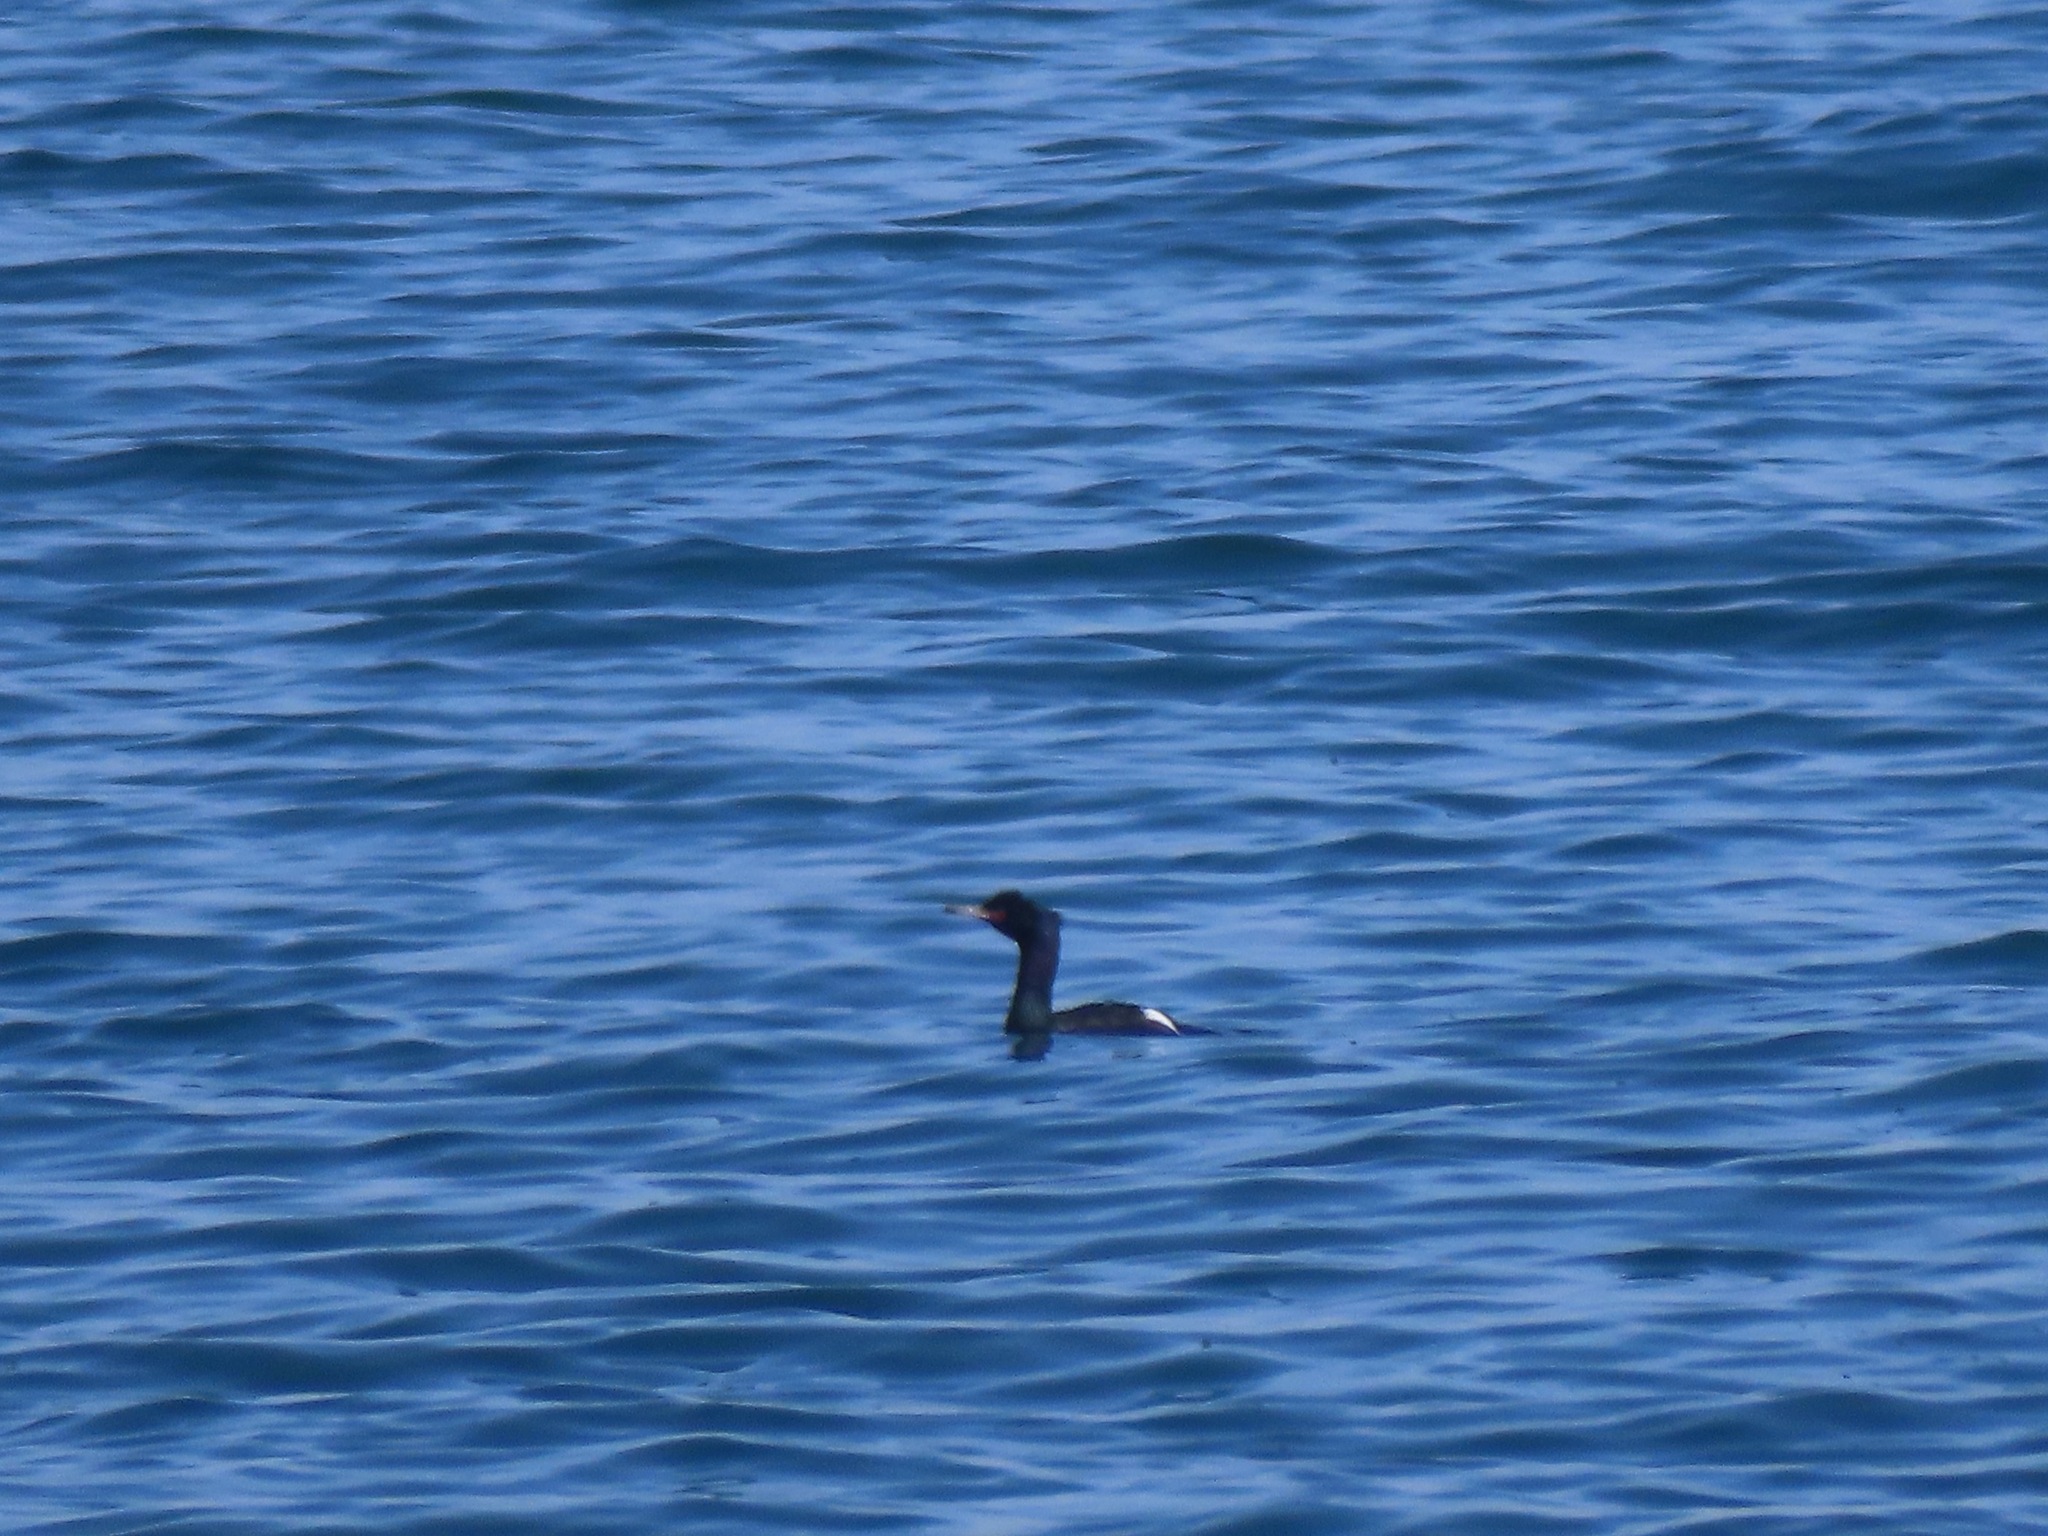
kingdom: Animalia
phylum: Chordata
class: Aves
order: Suliformes
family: Phalacrocoracidae
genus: Phalacrocorax
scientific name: Phalacrocorax pelagicus
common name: Pelagic cormorant
